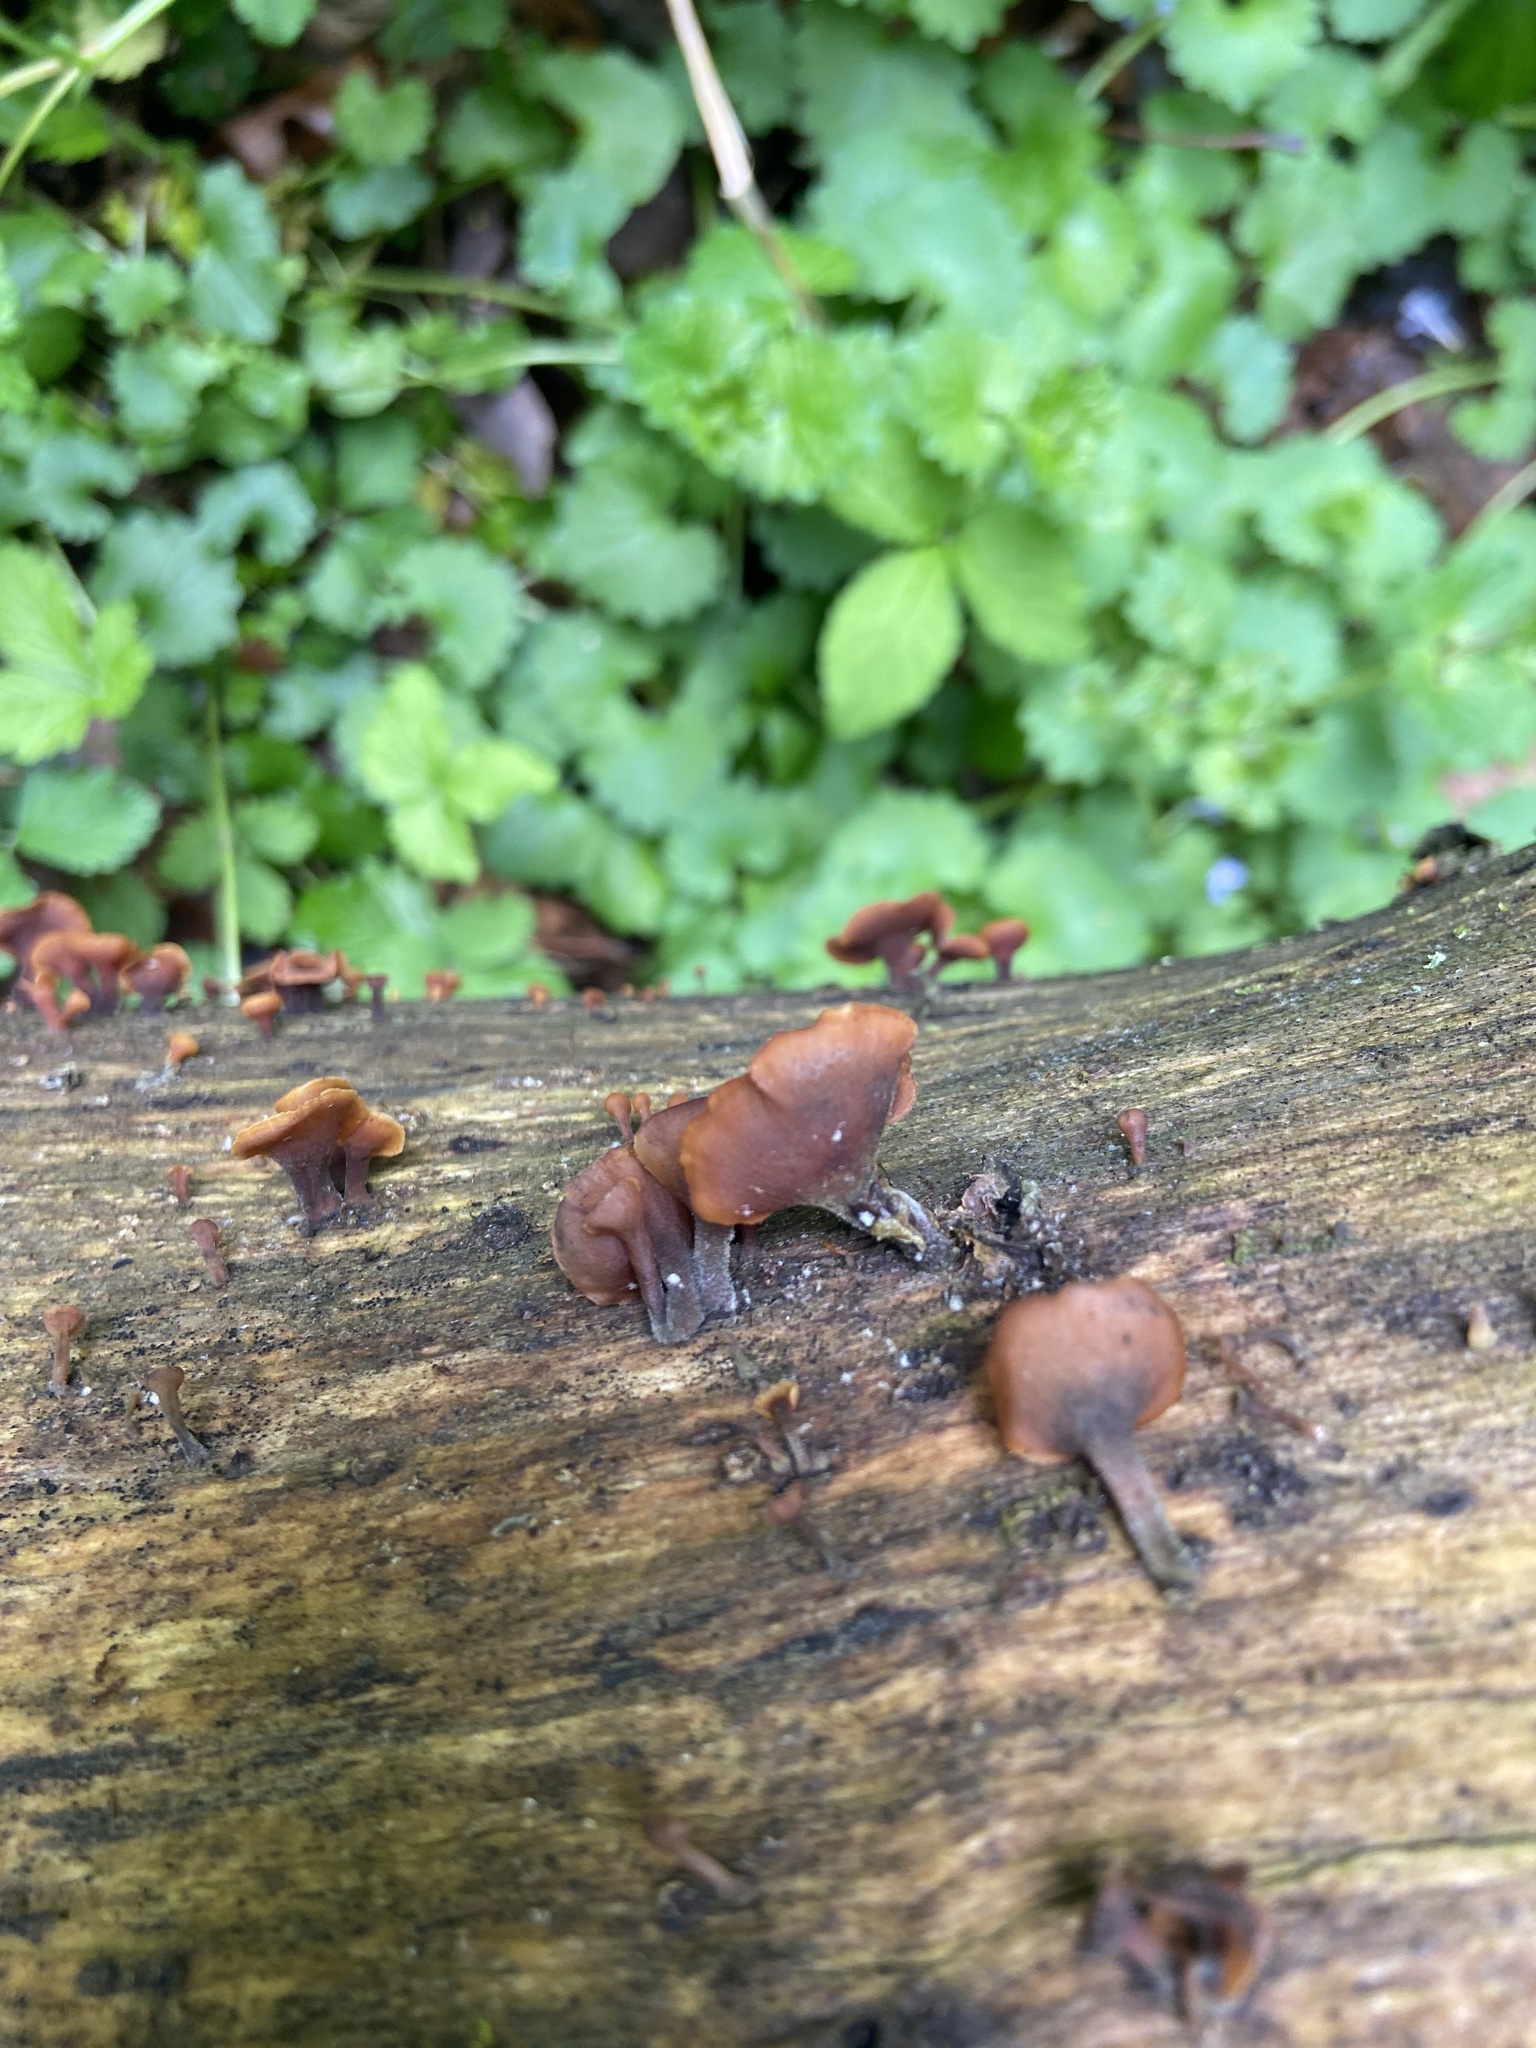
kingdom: Fungi
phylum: Basidiomycota
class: Dacrymycetes
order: Dacrymycetales
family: Dacrymycetaceae
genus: Dacryopinax
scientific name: Dacryopinax elegans
